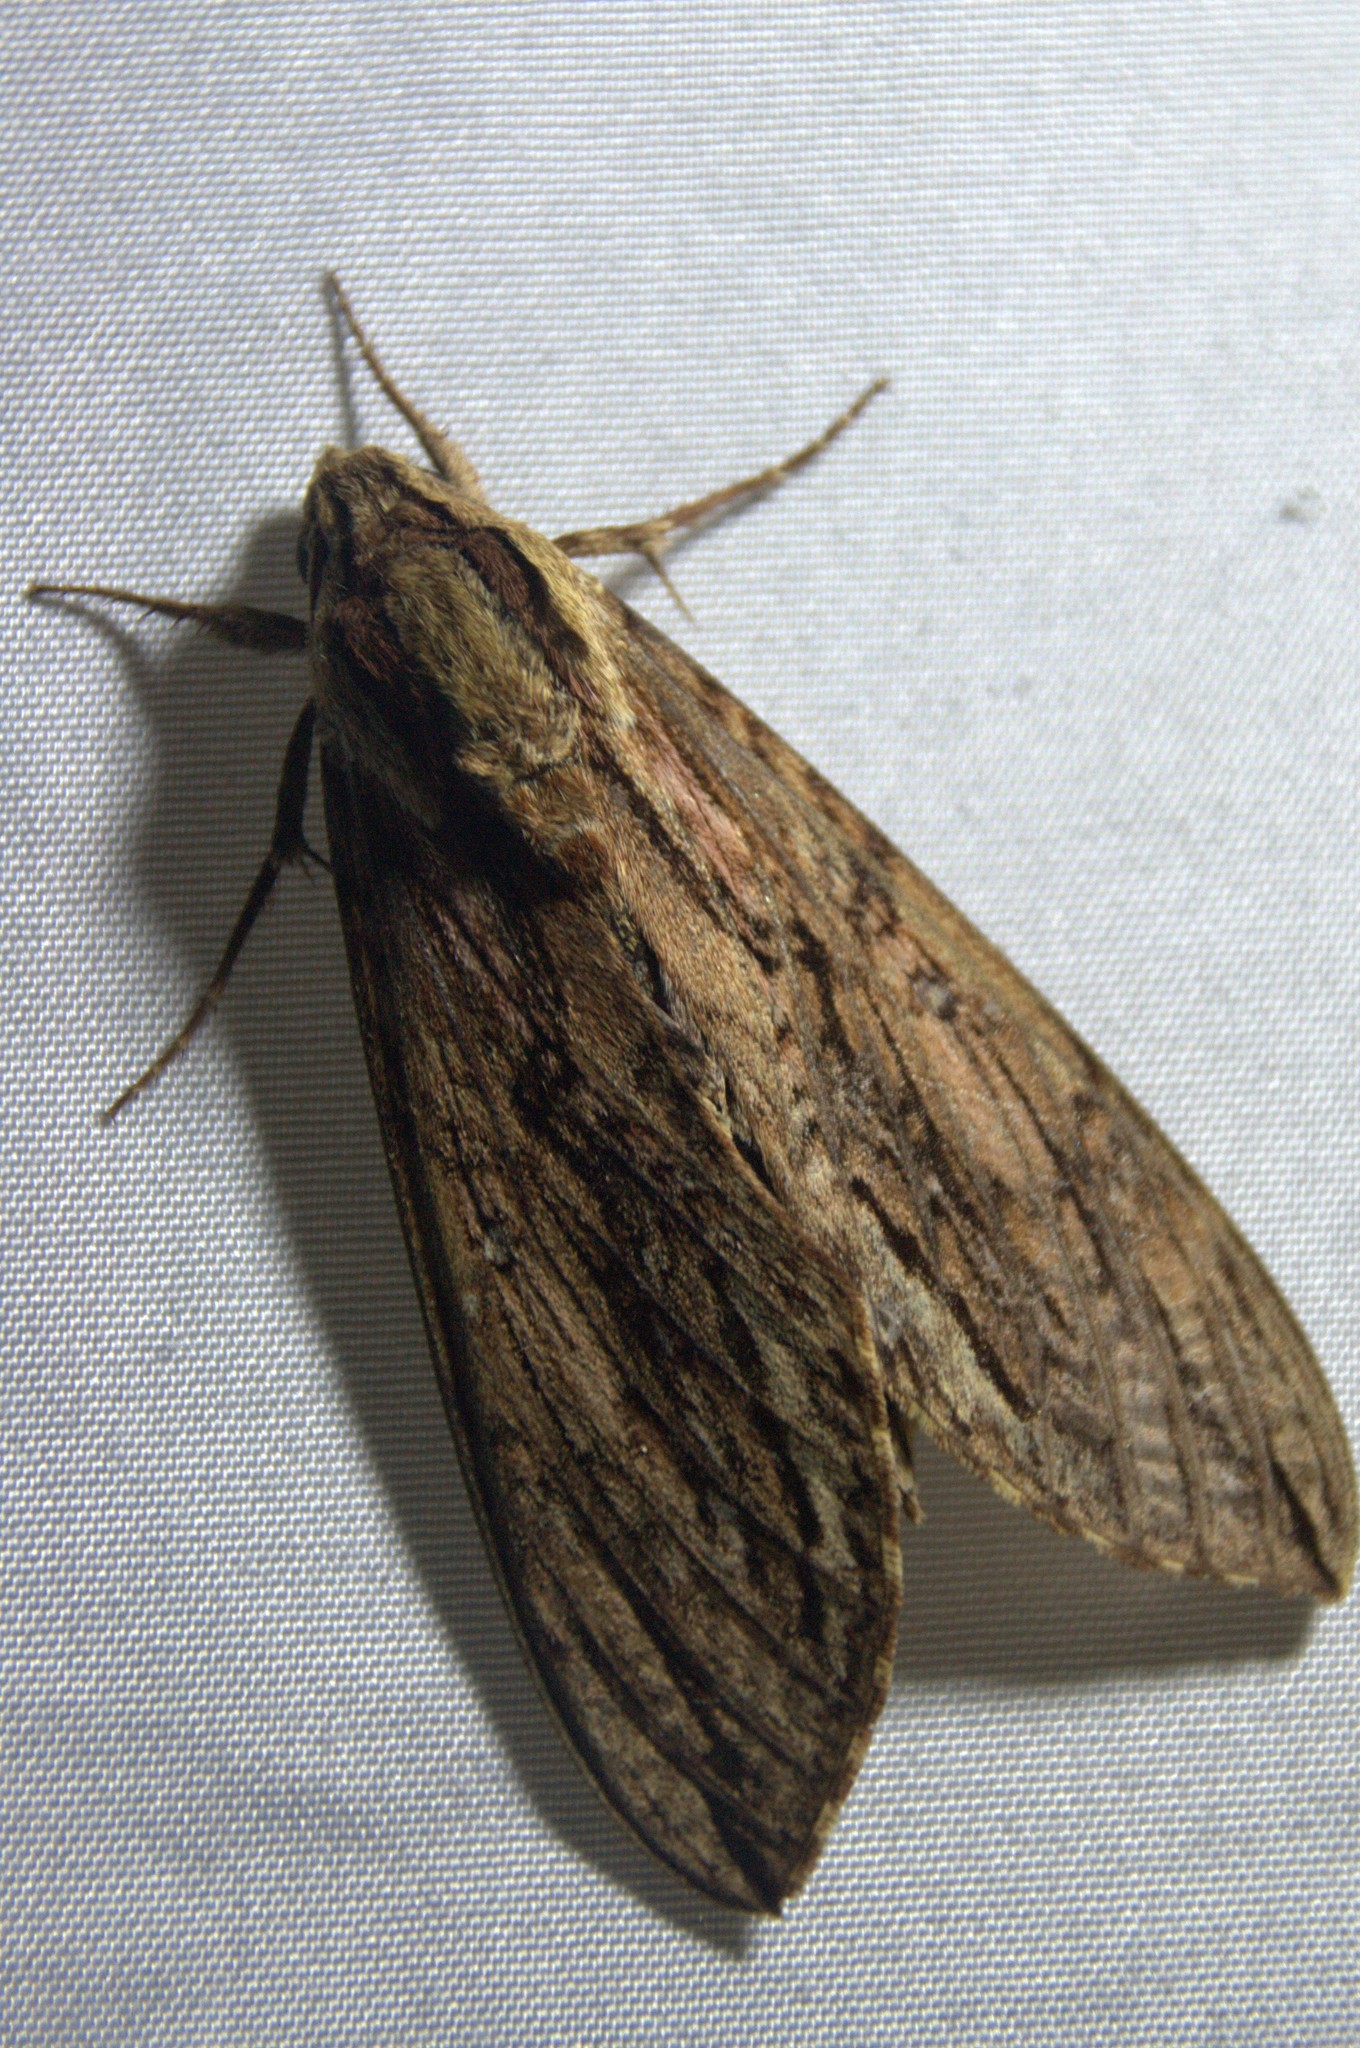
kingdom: Animalia
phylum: Arthropoda
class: Insecta
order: Lepidoptera
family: Sphingidae
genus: Lintneria
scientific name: Lintneria merops
